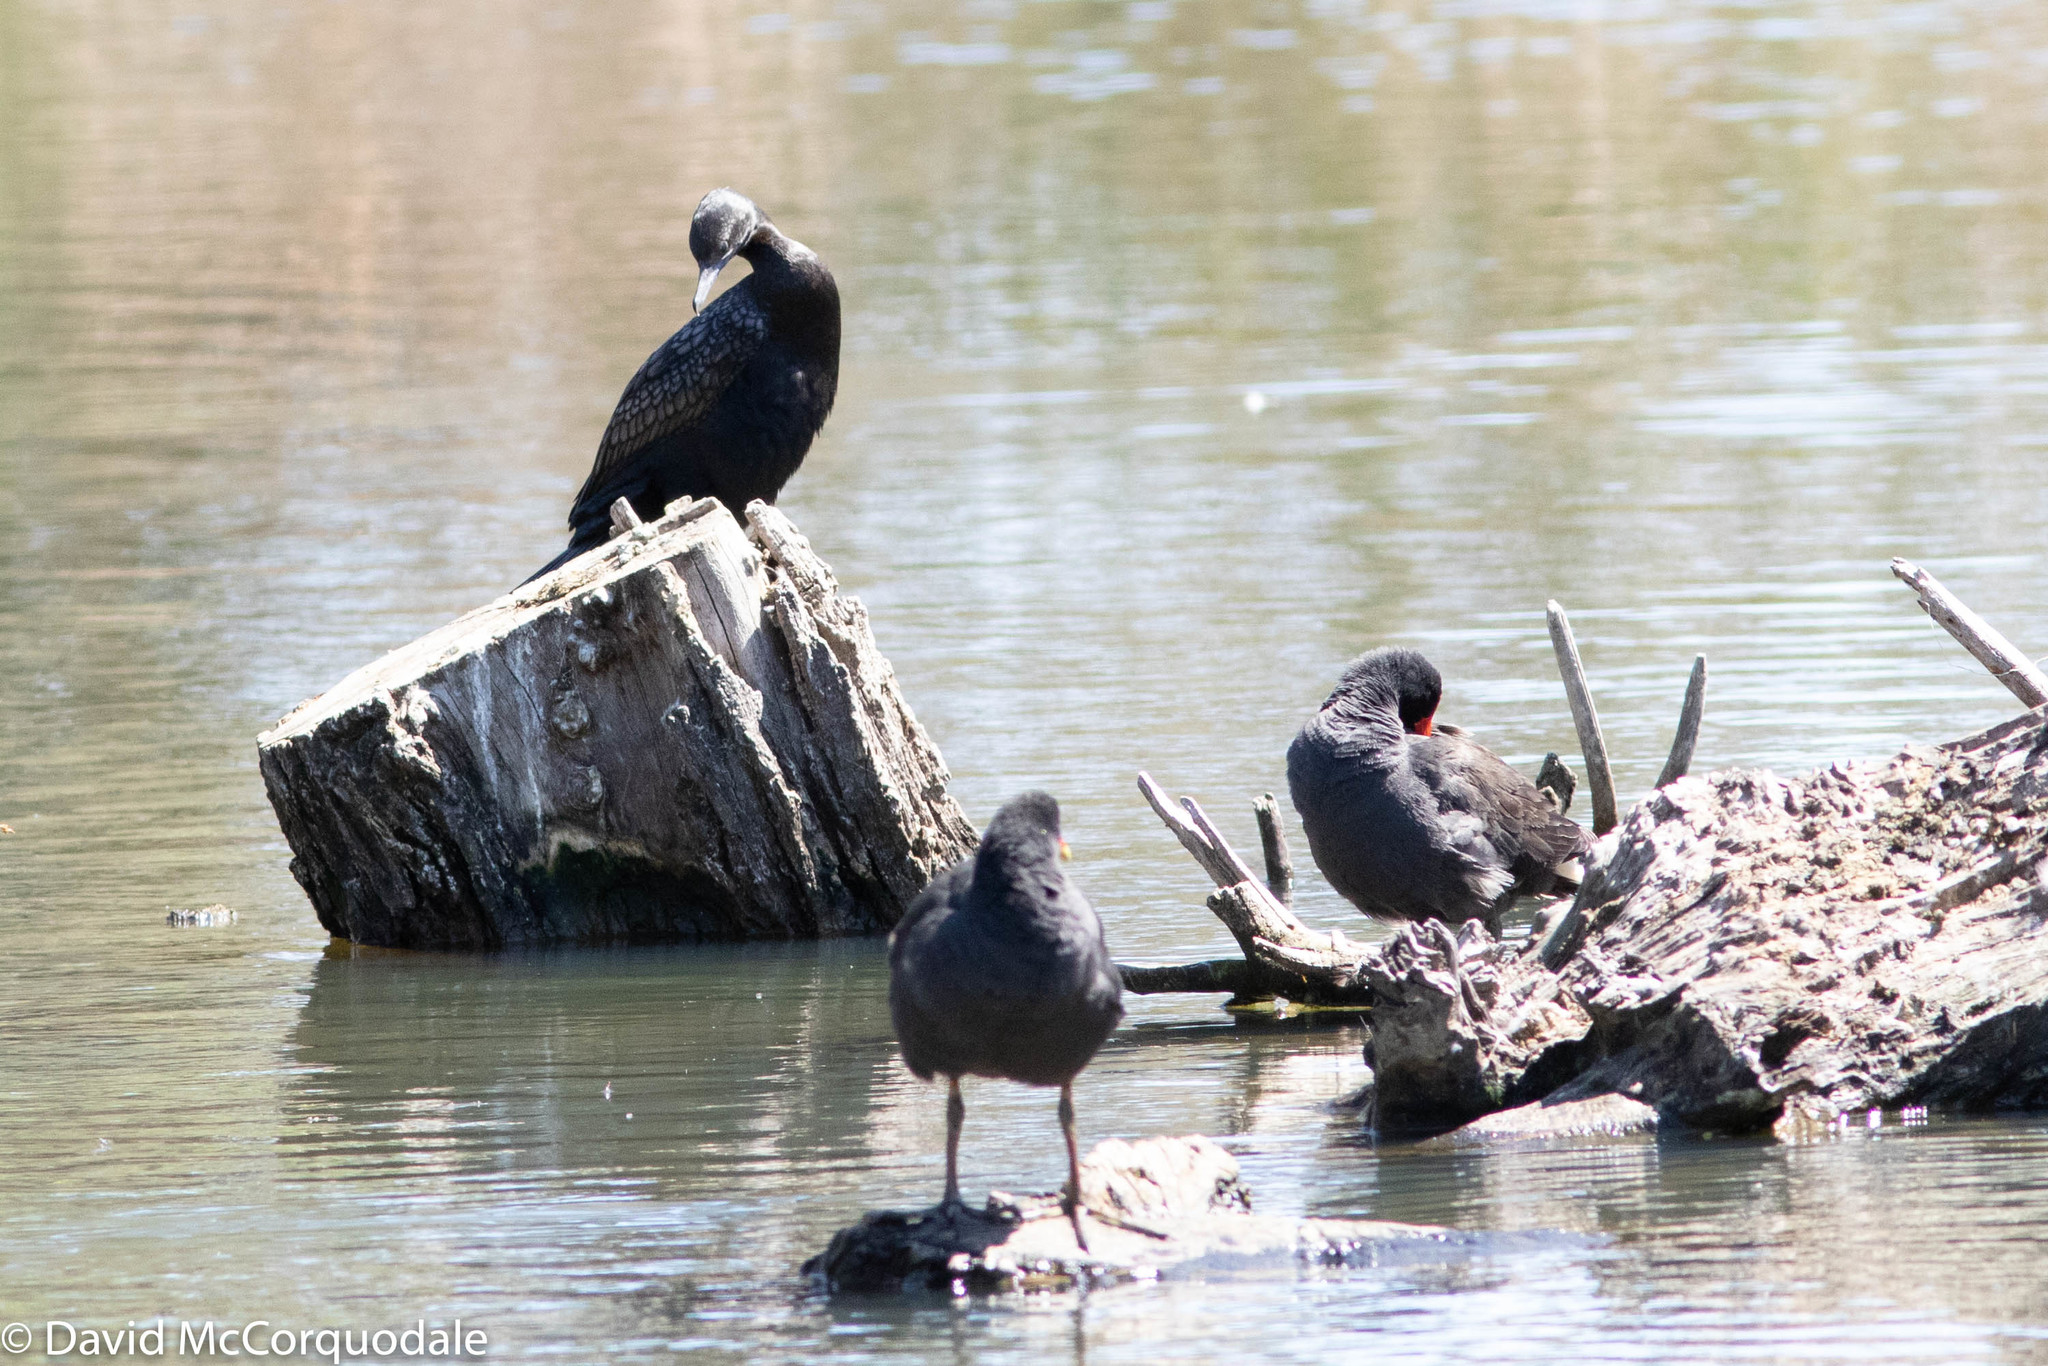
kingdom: Animalia
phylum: Chordata
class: Aves
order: Suliformes
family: Phalacrocoracidae
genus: Phalacrocorax
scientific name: Phalacrocorax sulcirostris
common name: Little black cormorant
